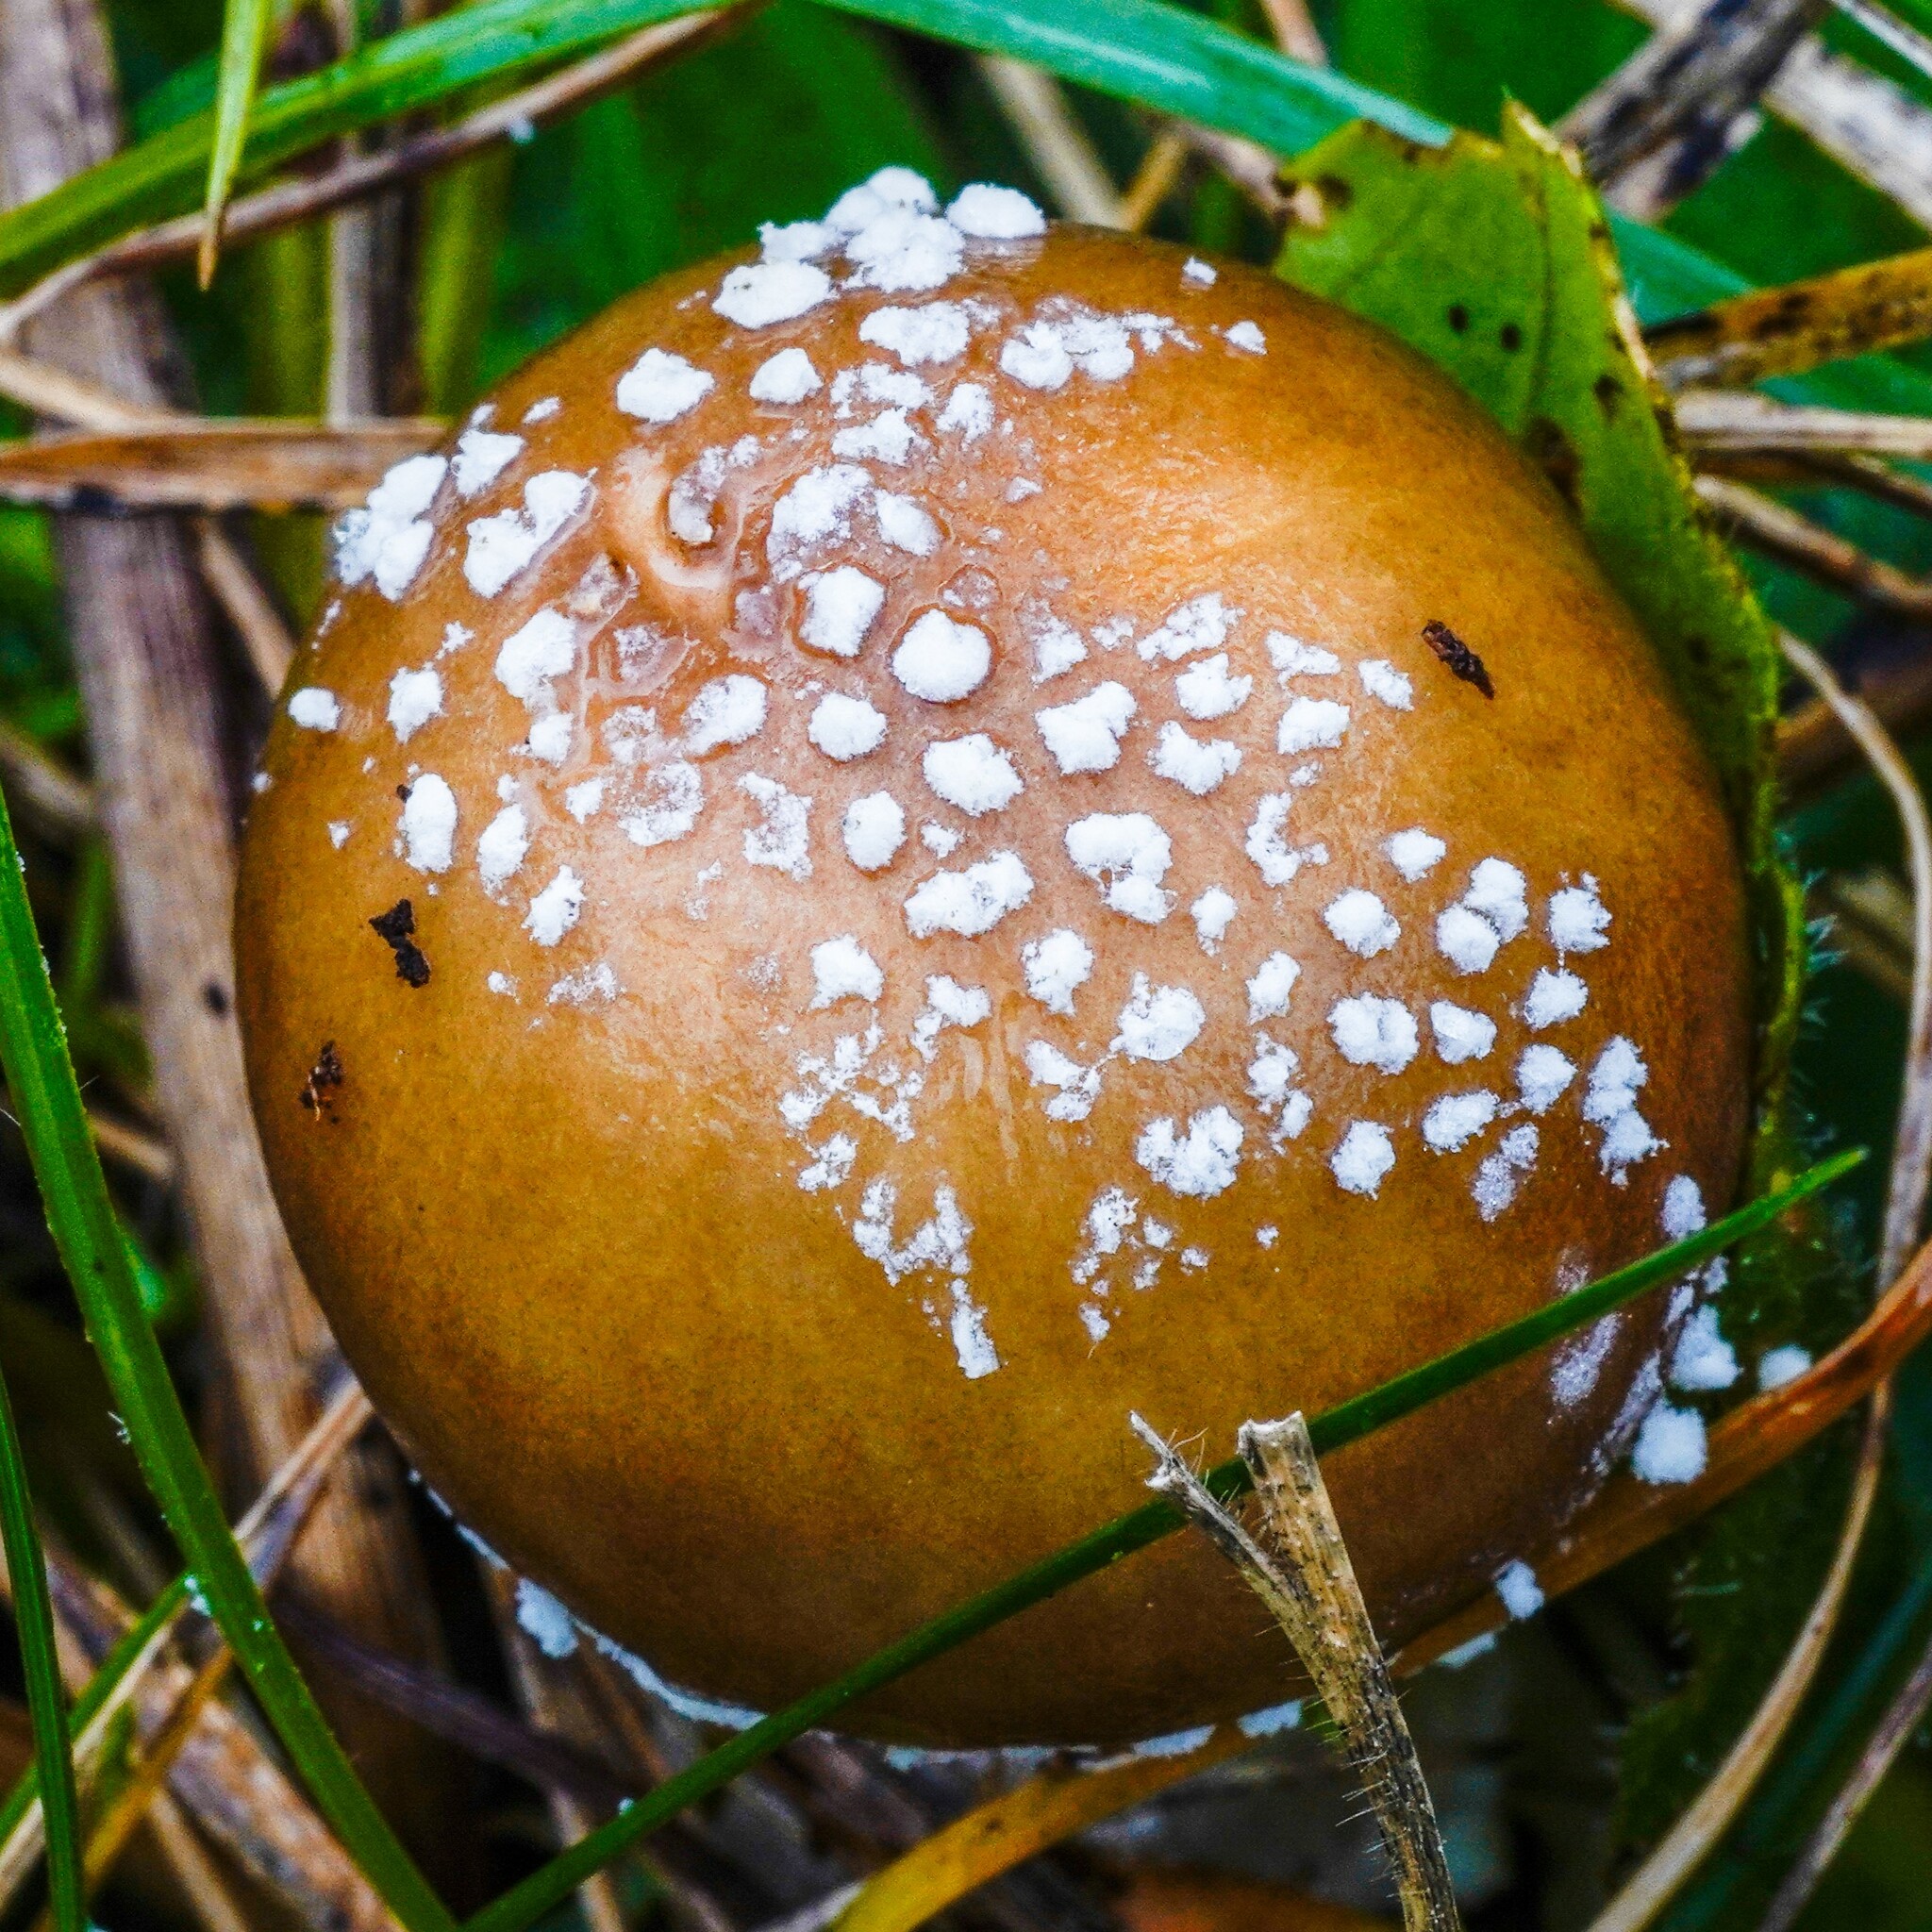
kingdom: Fungi
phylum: Basidiomycota
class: Agaricomycetes
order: Agaricales
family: Amanitaceae
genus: Amanita
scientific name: Amanita pantherina
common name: Panthercap
